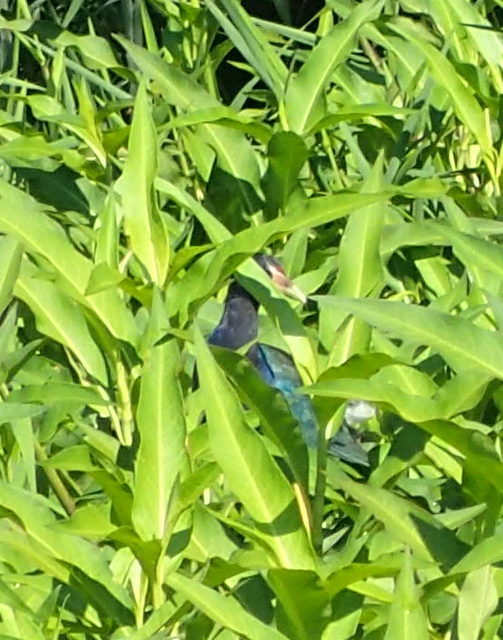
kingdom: Animalia
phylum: Chordata
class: Aves
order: Gruiformes
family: Rallidae
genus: Porphyrio
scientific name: Porphyrio martinica
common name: Purple gallinule
